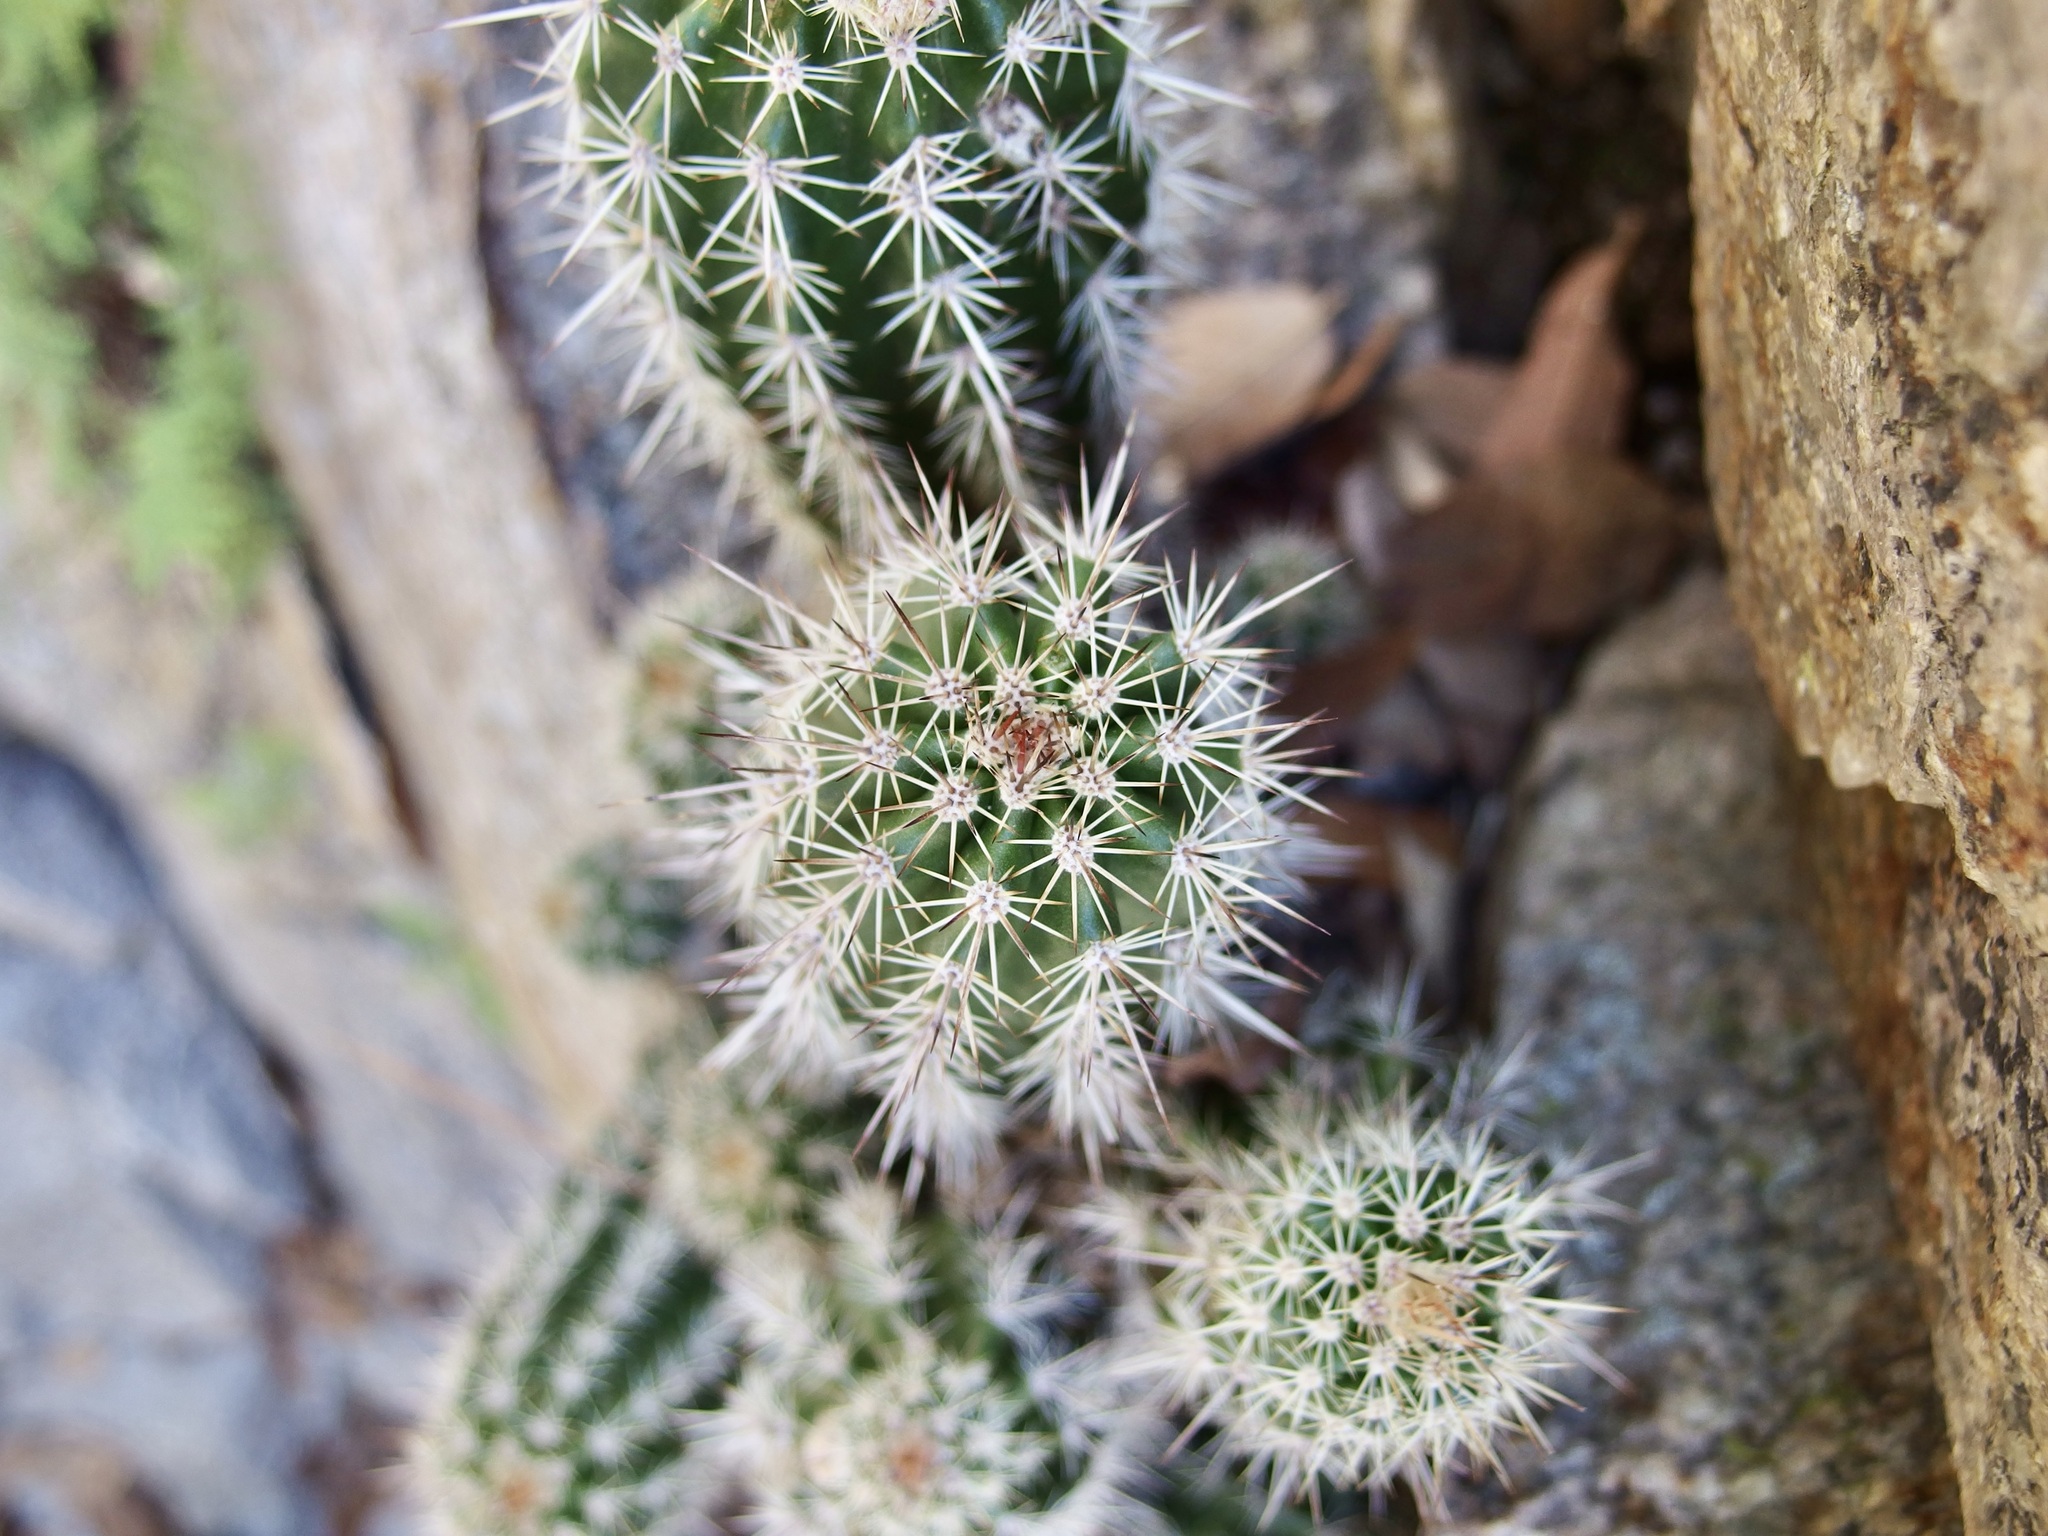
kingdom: Plantae
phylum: Tracheophyta
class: Magnoliopsida
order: Caryophyllales
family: Cactaceae
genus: Echinocereus
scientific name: Echinocereus coccineus
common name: Scarlet hedgehog cactus
